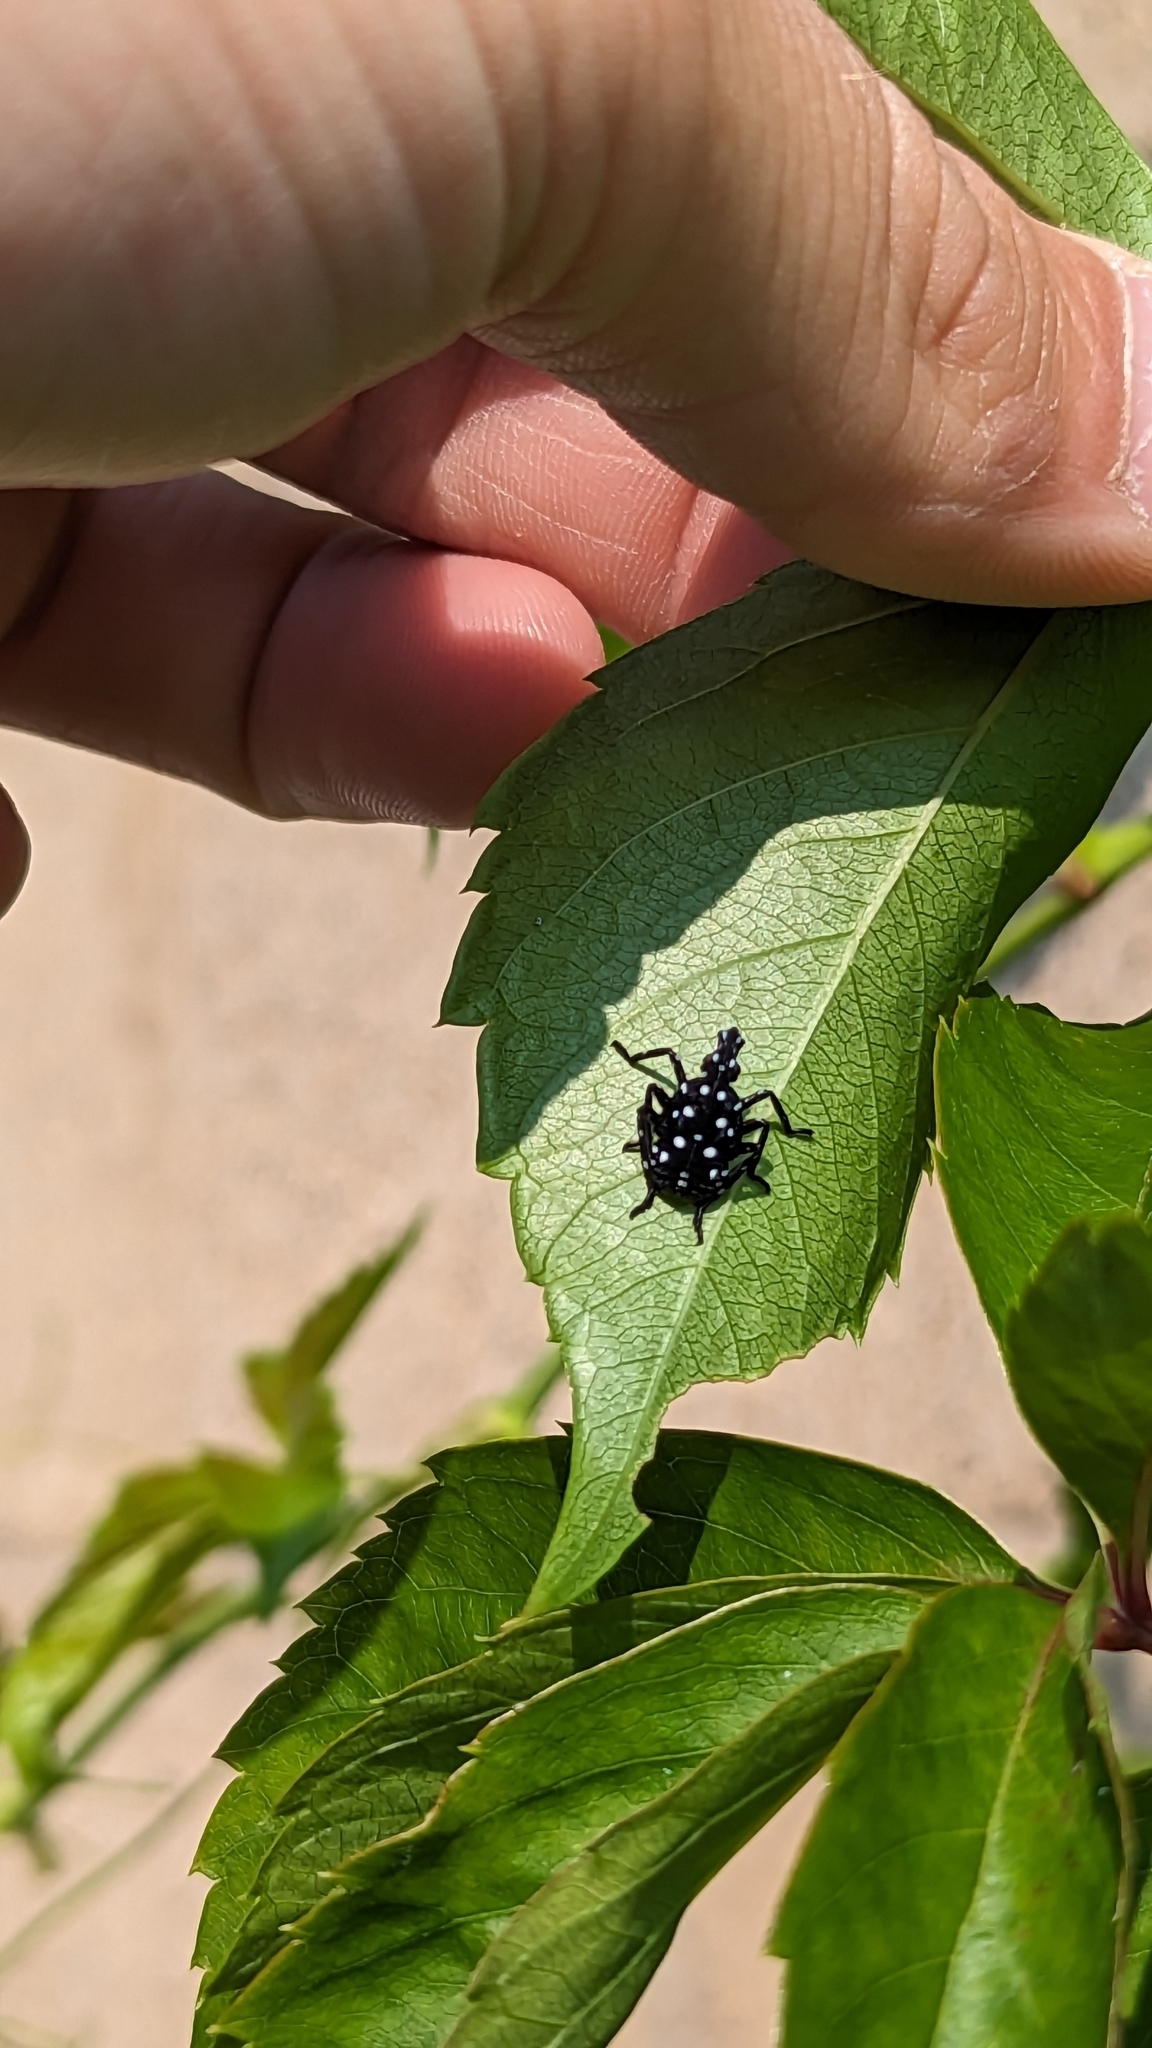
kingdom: Animalia
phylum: Arthropoda
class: Insecta
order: Hemiptera
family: Fulgoridae
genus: Lycorma
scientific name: Lycorma delicatula
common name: Spotted lanternfly
